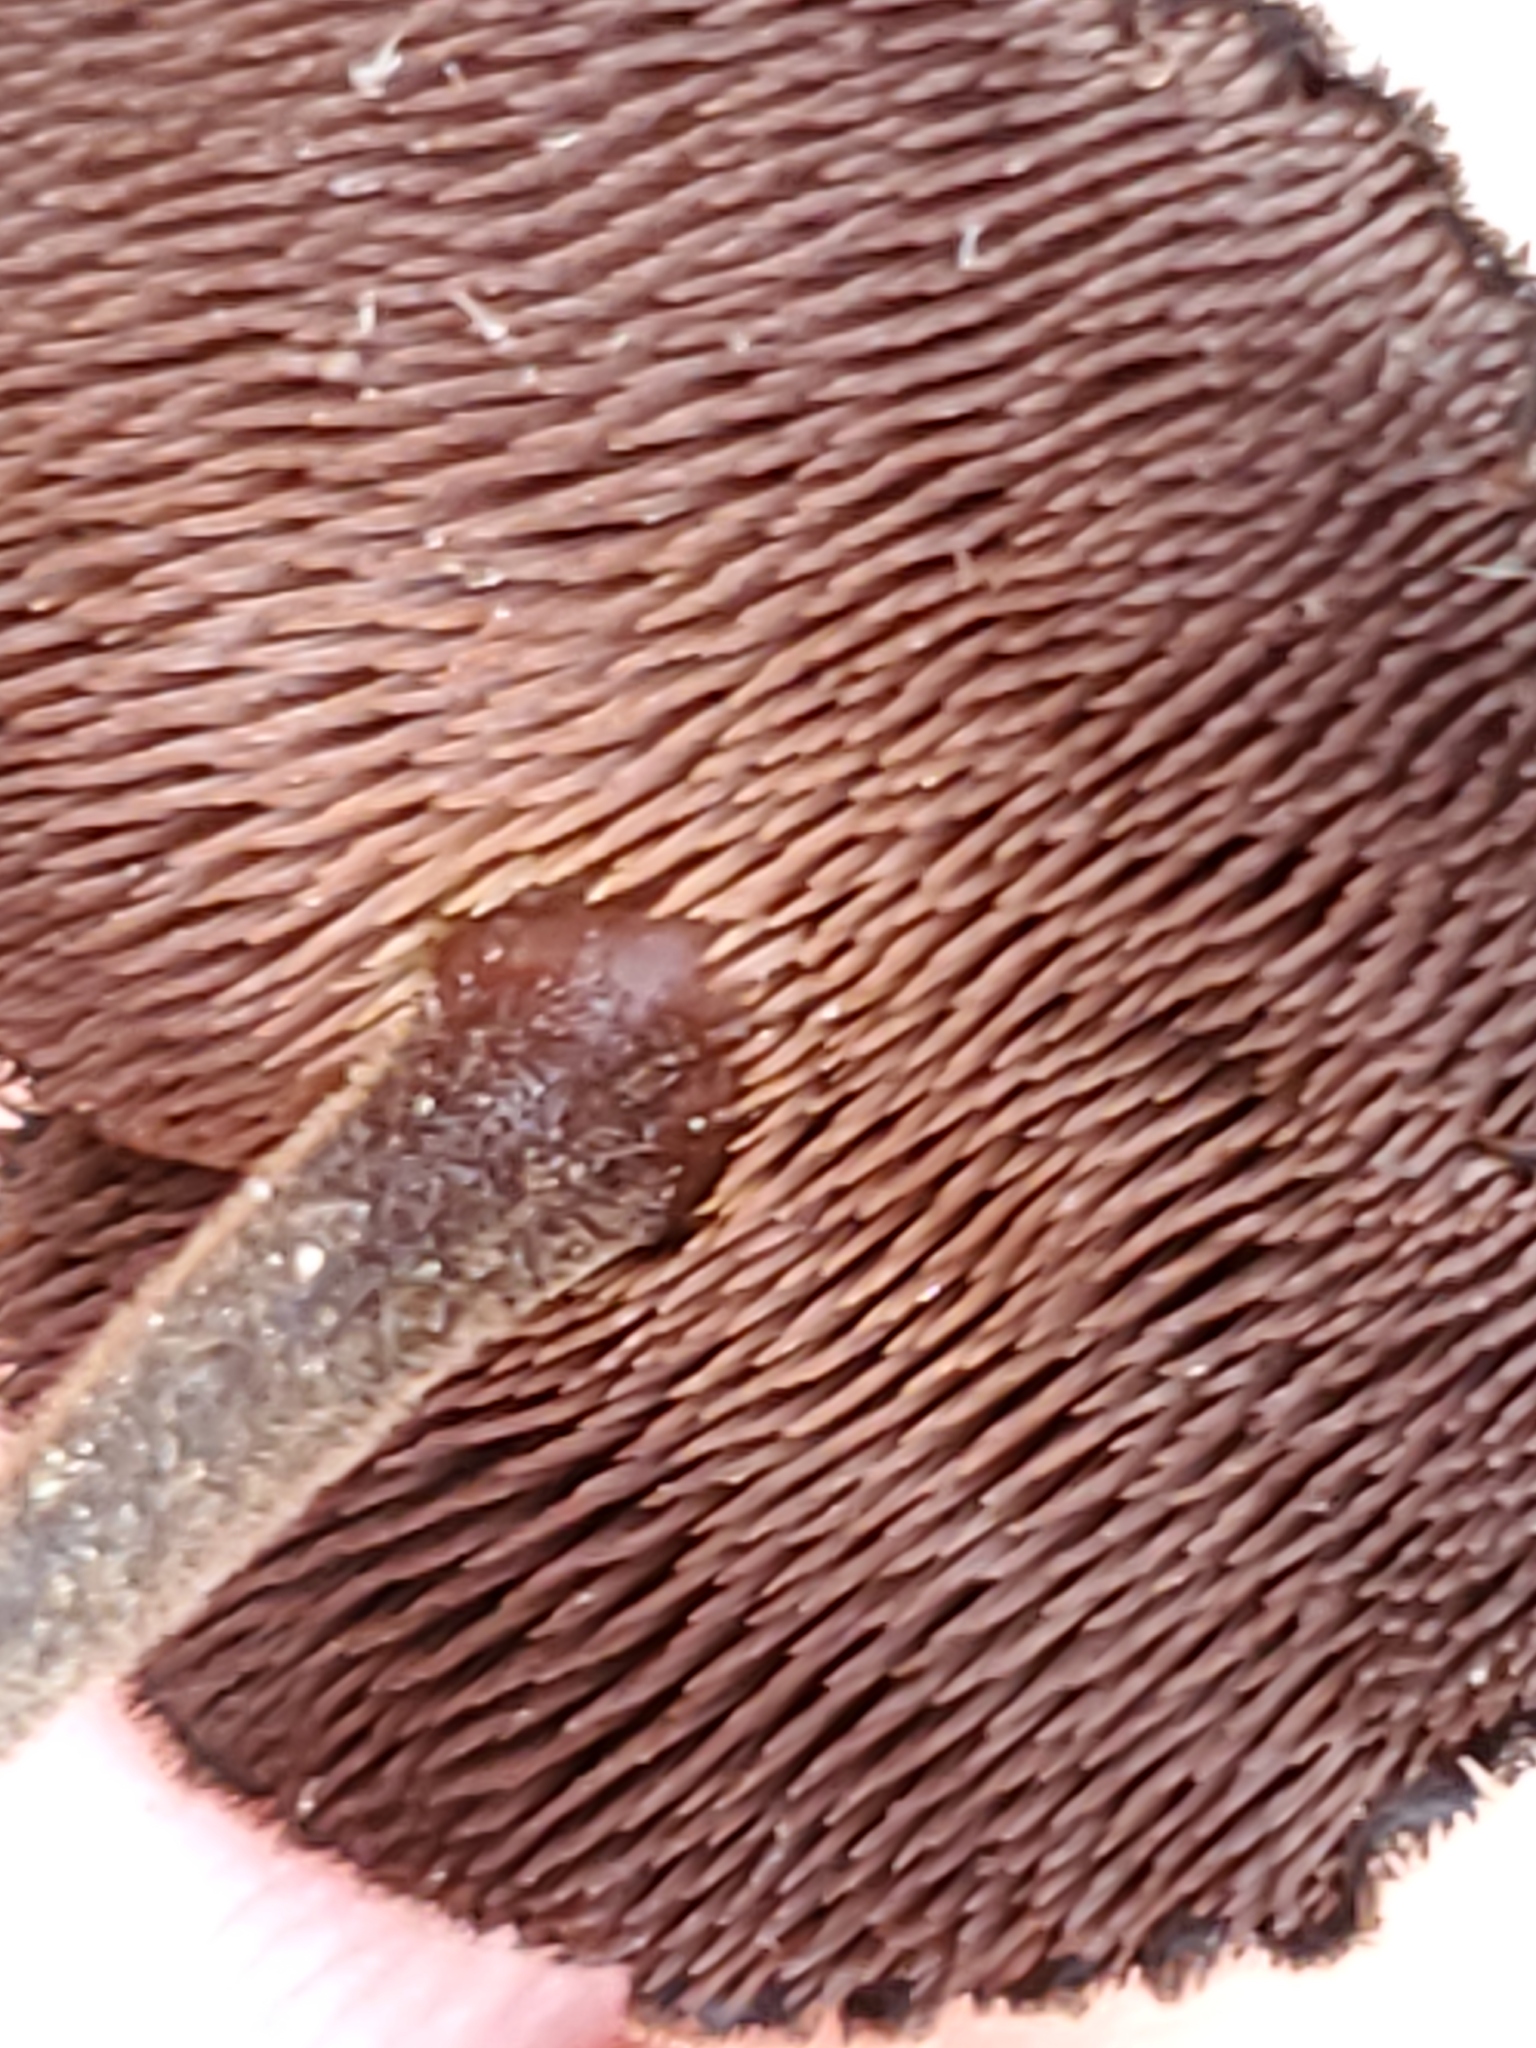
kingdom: Fungi
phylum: Basidiomycota
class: Agaricomycetes
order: Russulales
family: Auriscalpiaceae
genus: Auriscalpium
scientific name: Auriscalpium vulgare
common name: Earpick fungus
